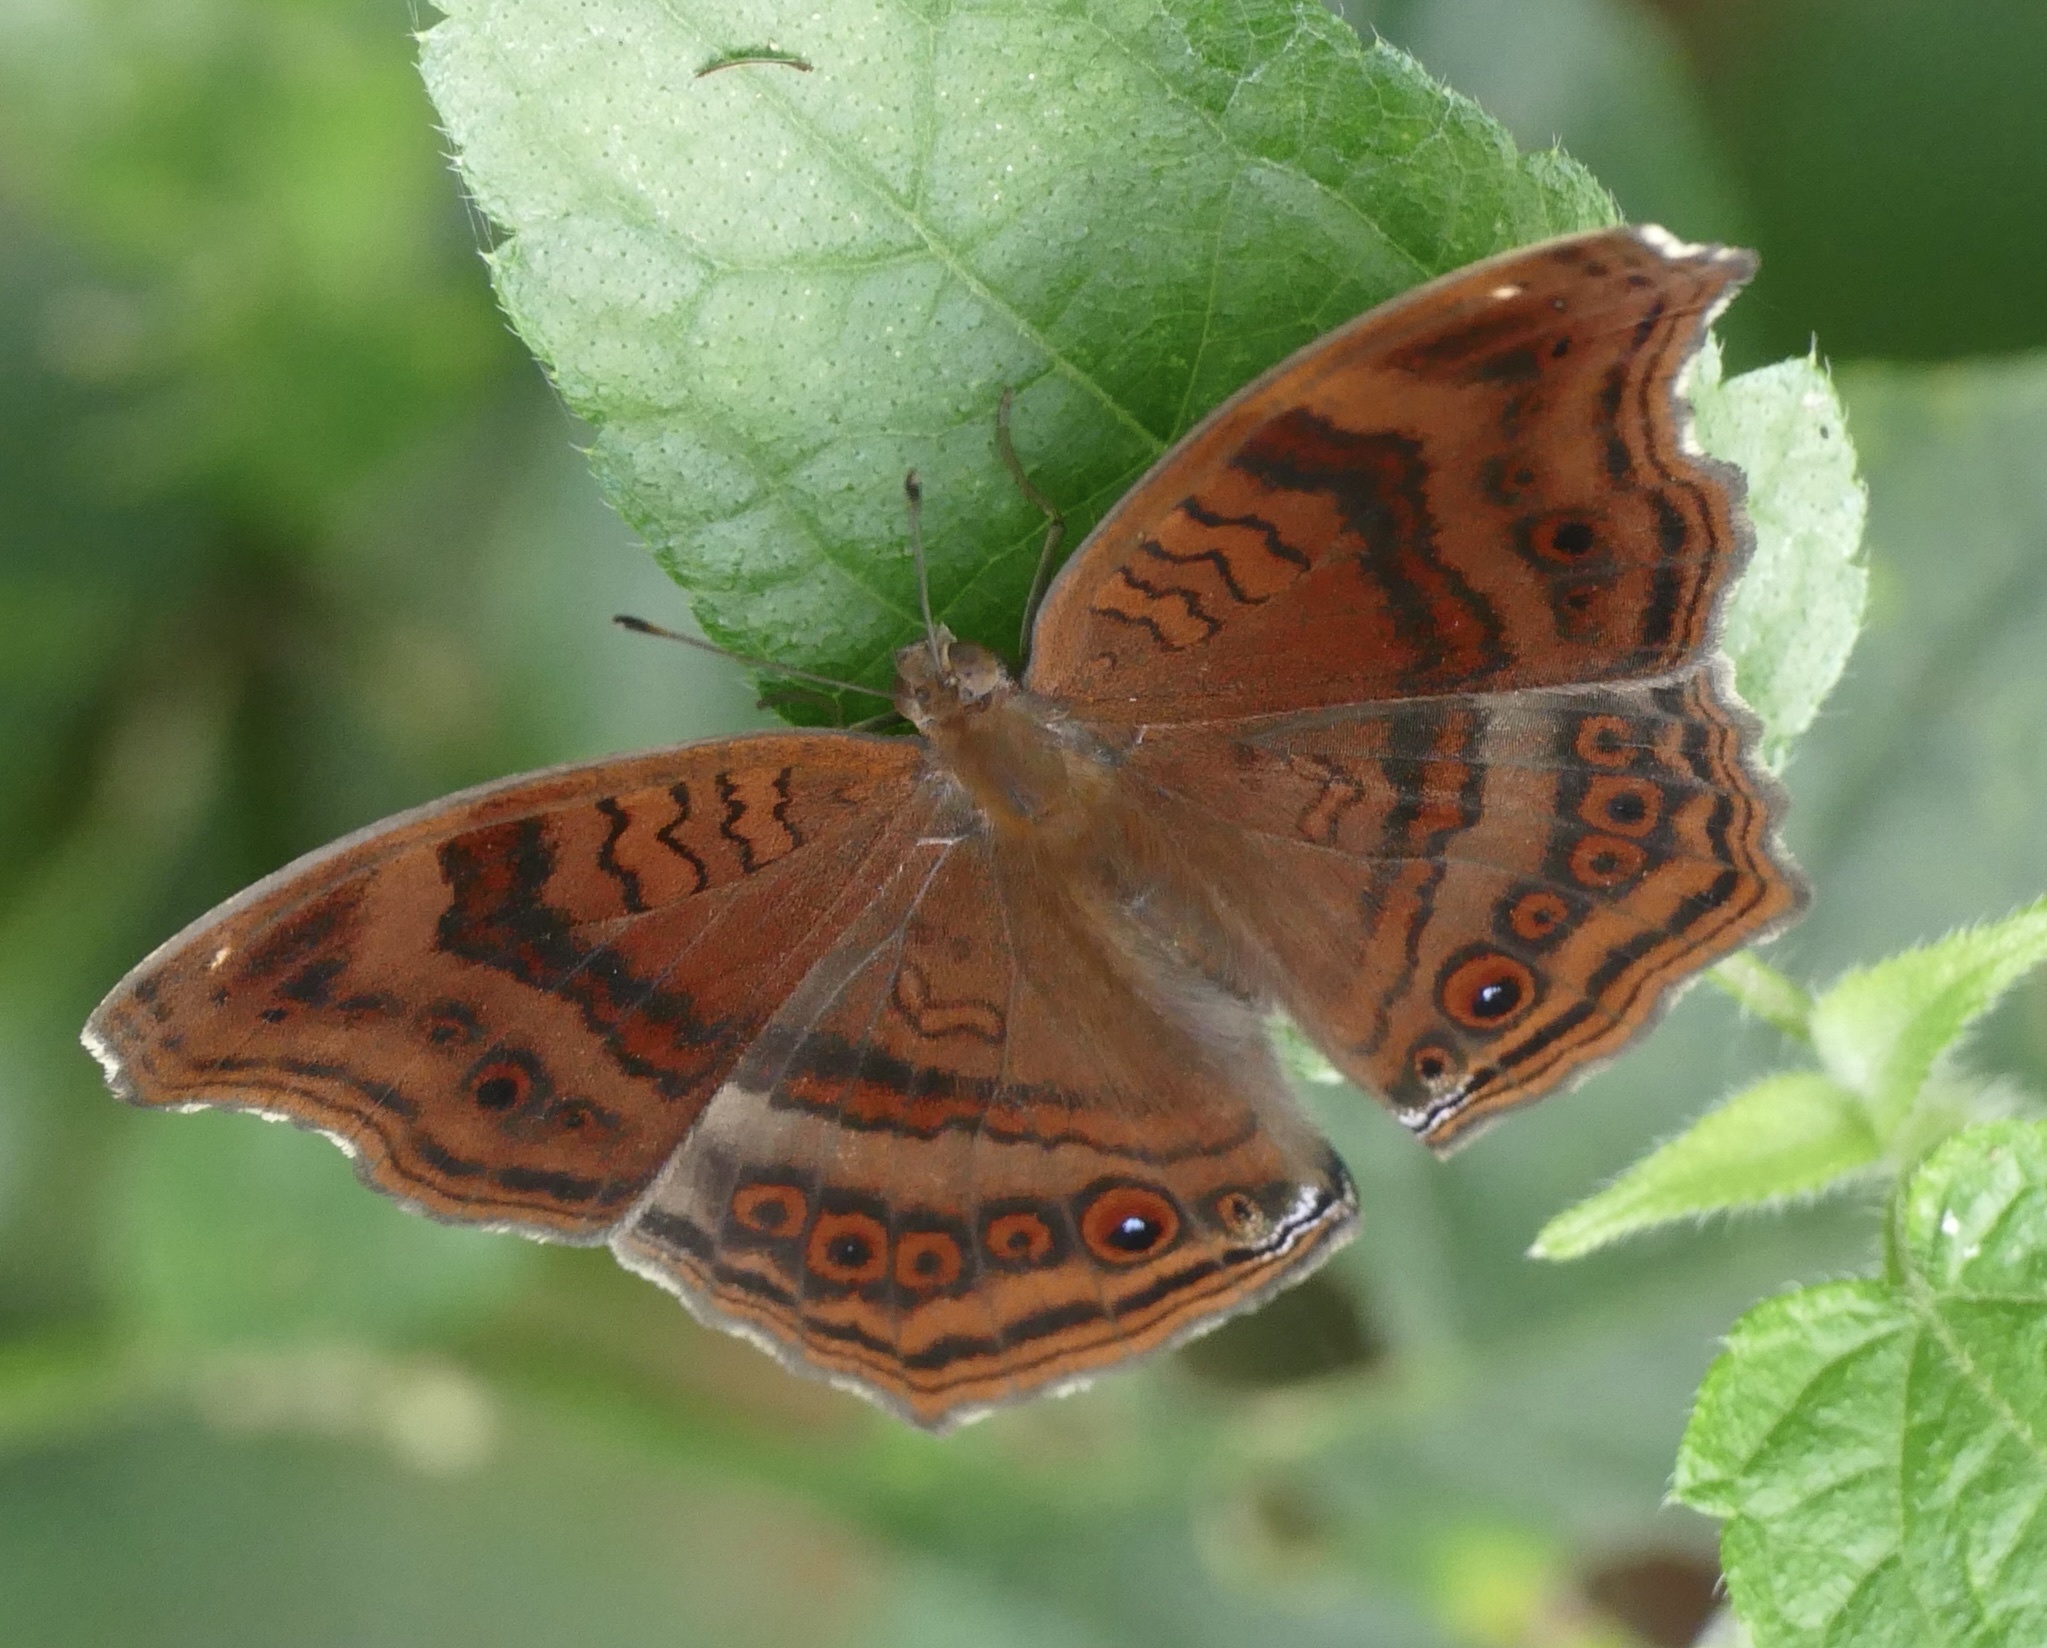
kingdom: Animalia
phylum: Arthropoda
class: Insecta
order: Lepidoptera
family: Nymphalidae
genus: Junonia
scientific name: Junonia stygia
